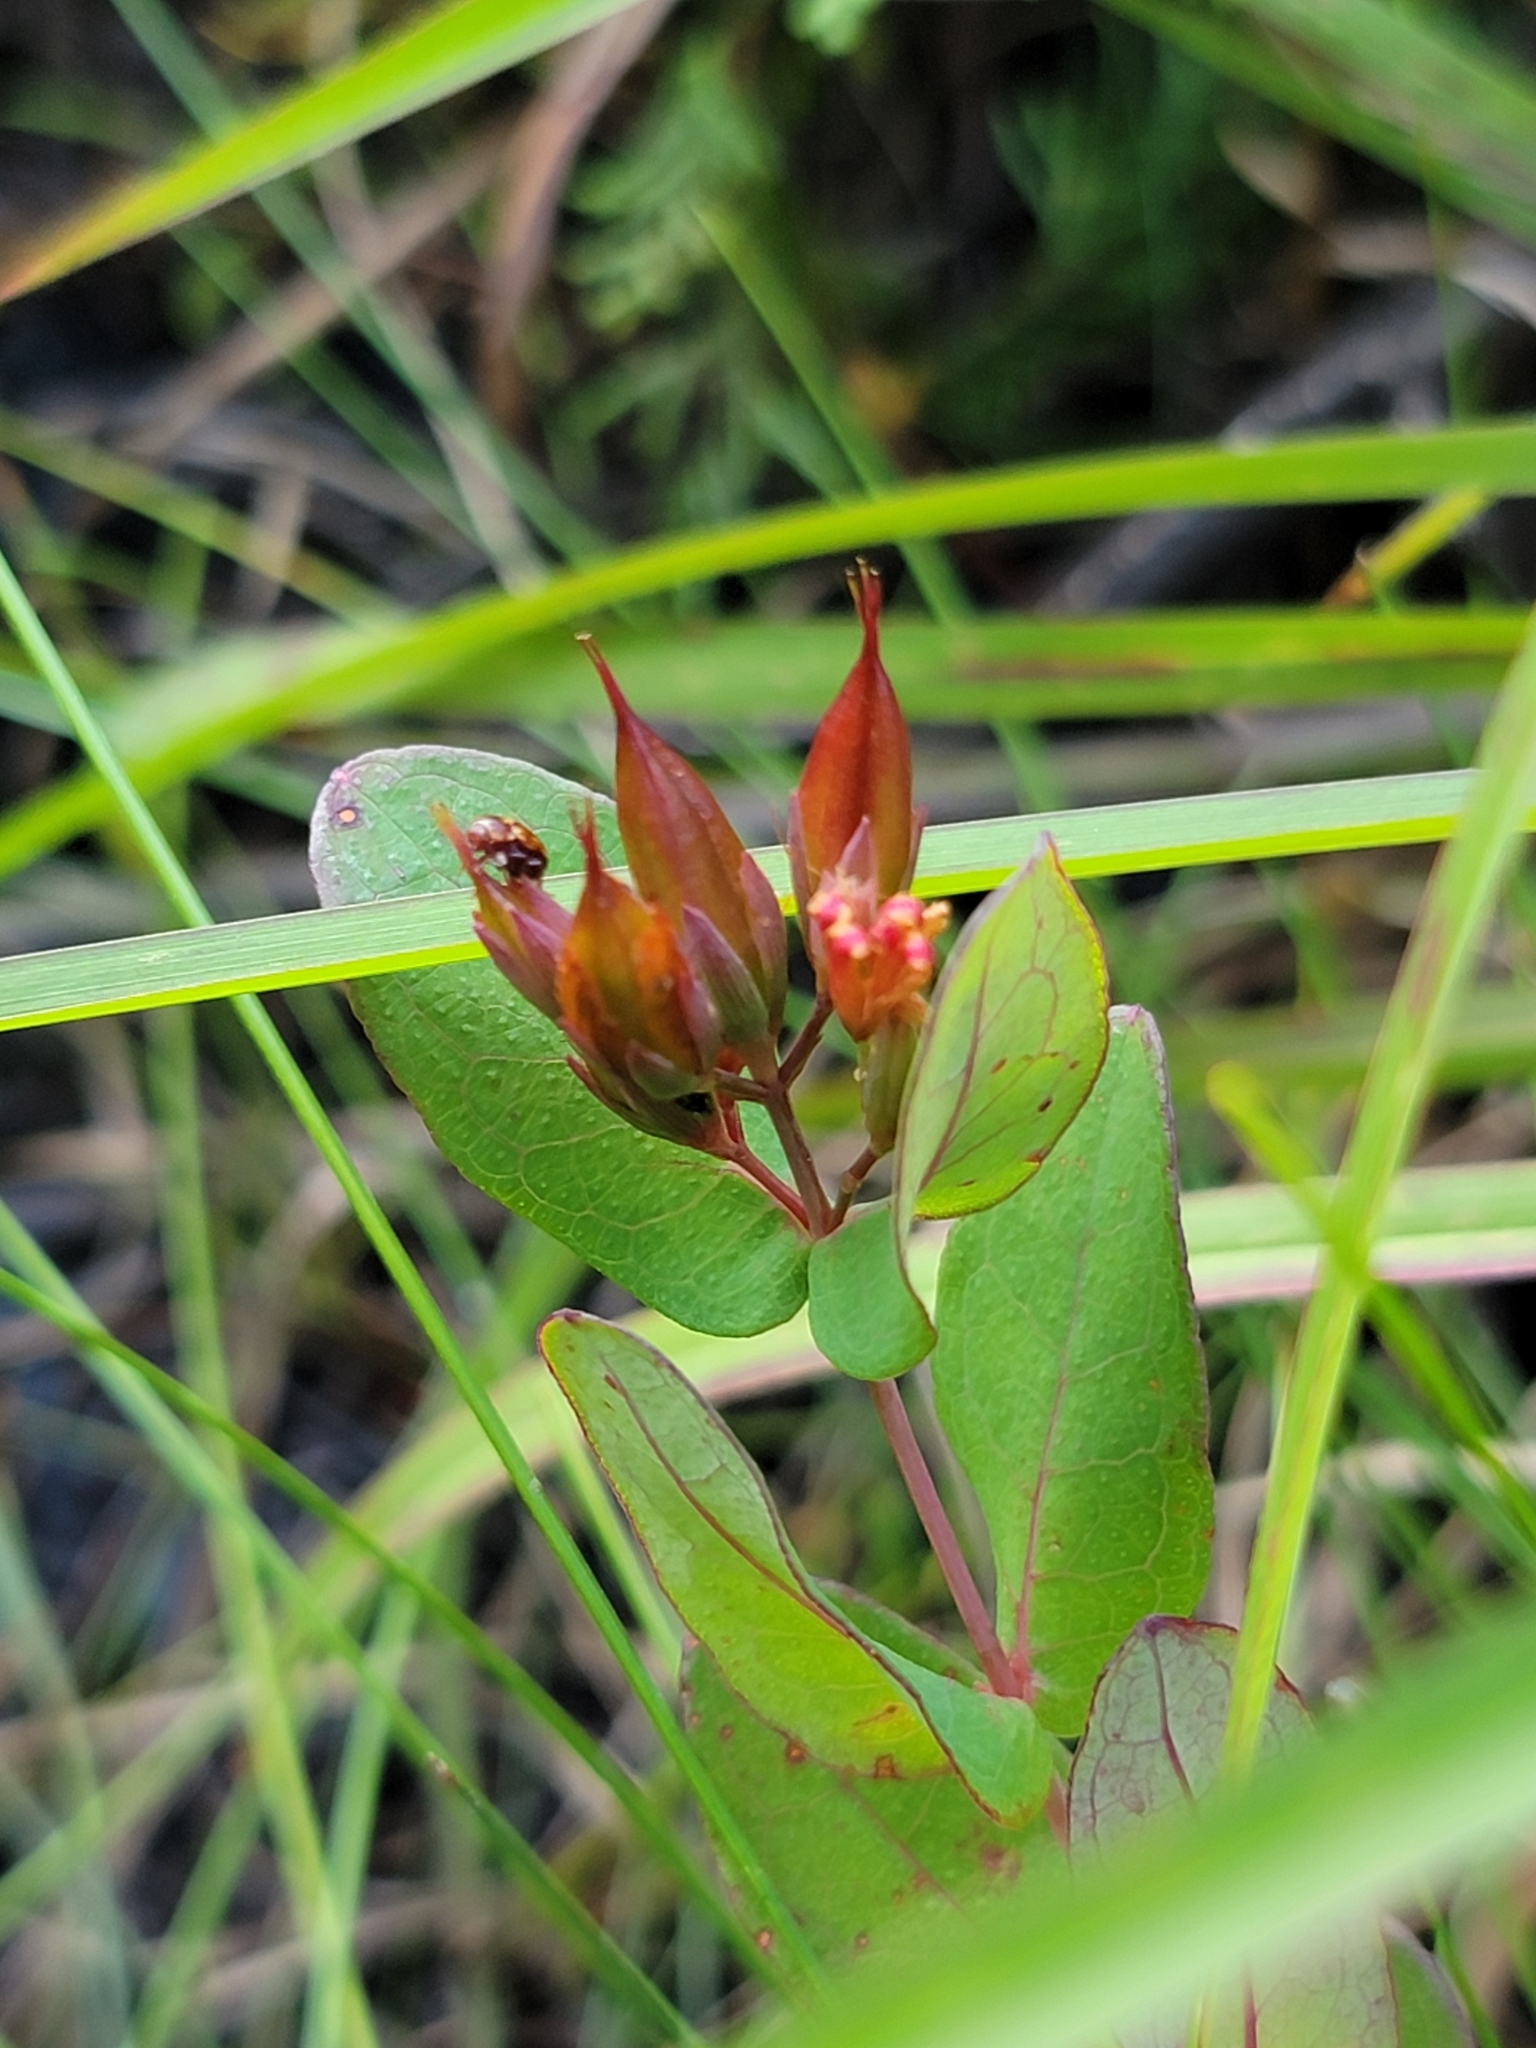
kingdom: Plantae
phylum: Tracheophyta
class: Magnoliopsida
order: Malpighiales
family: Hypericaceae
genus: Triadenum
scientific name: Triadenum virginicum
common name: Marsh st. john's-wort
